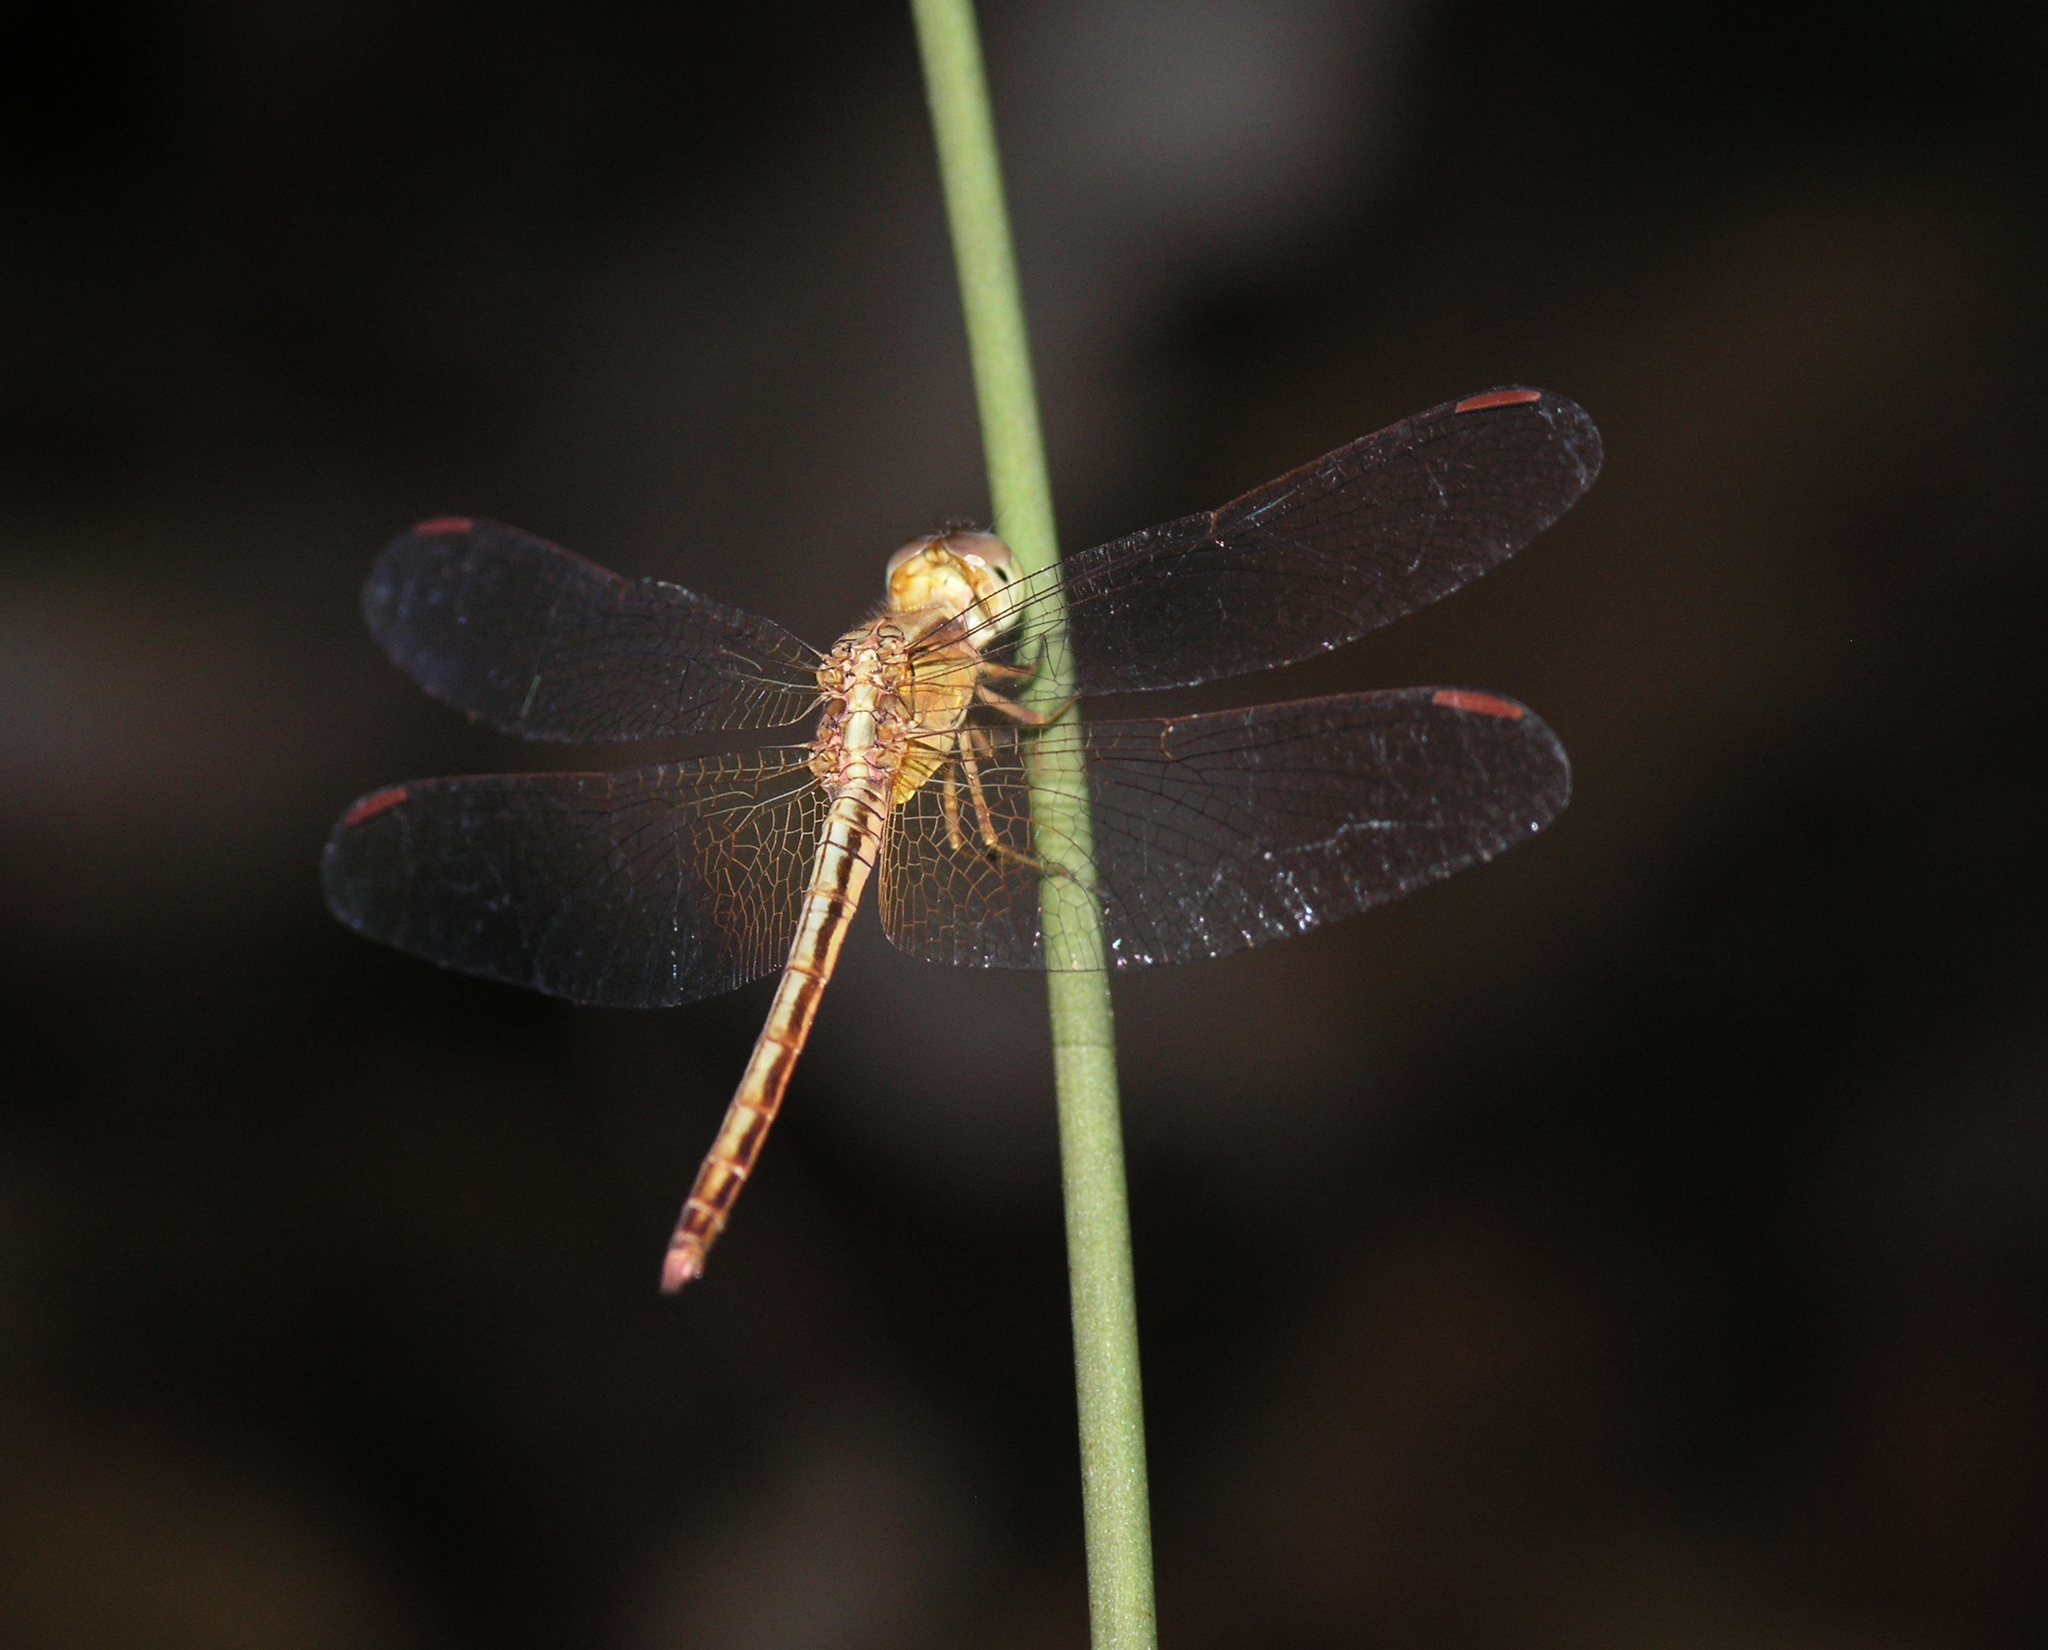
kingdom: Animalia
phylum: Arthropoda
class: Insecta
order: Odonata
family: Libellulidae
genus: Neurothemis
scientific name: Neurothemis intermedia
